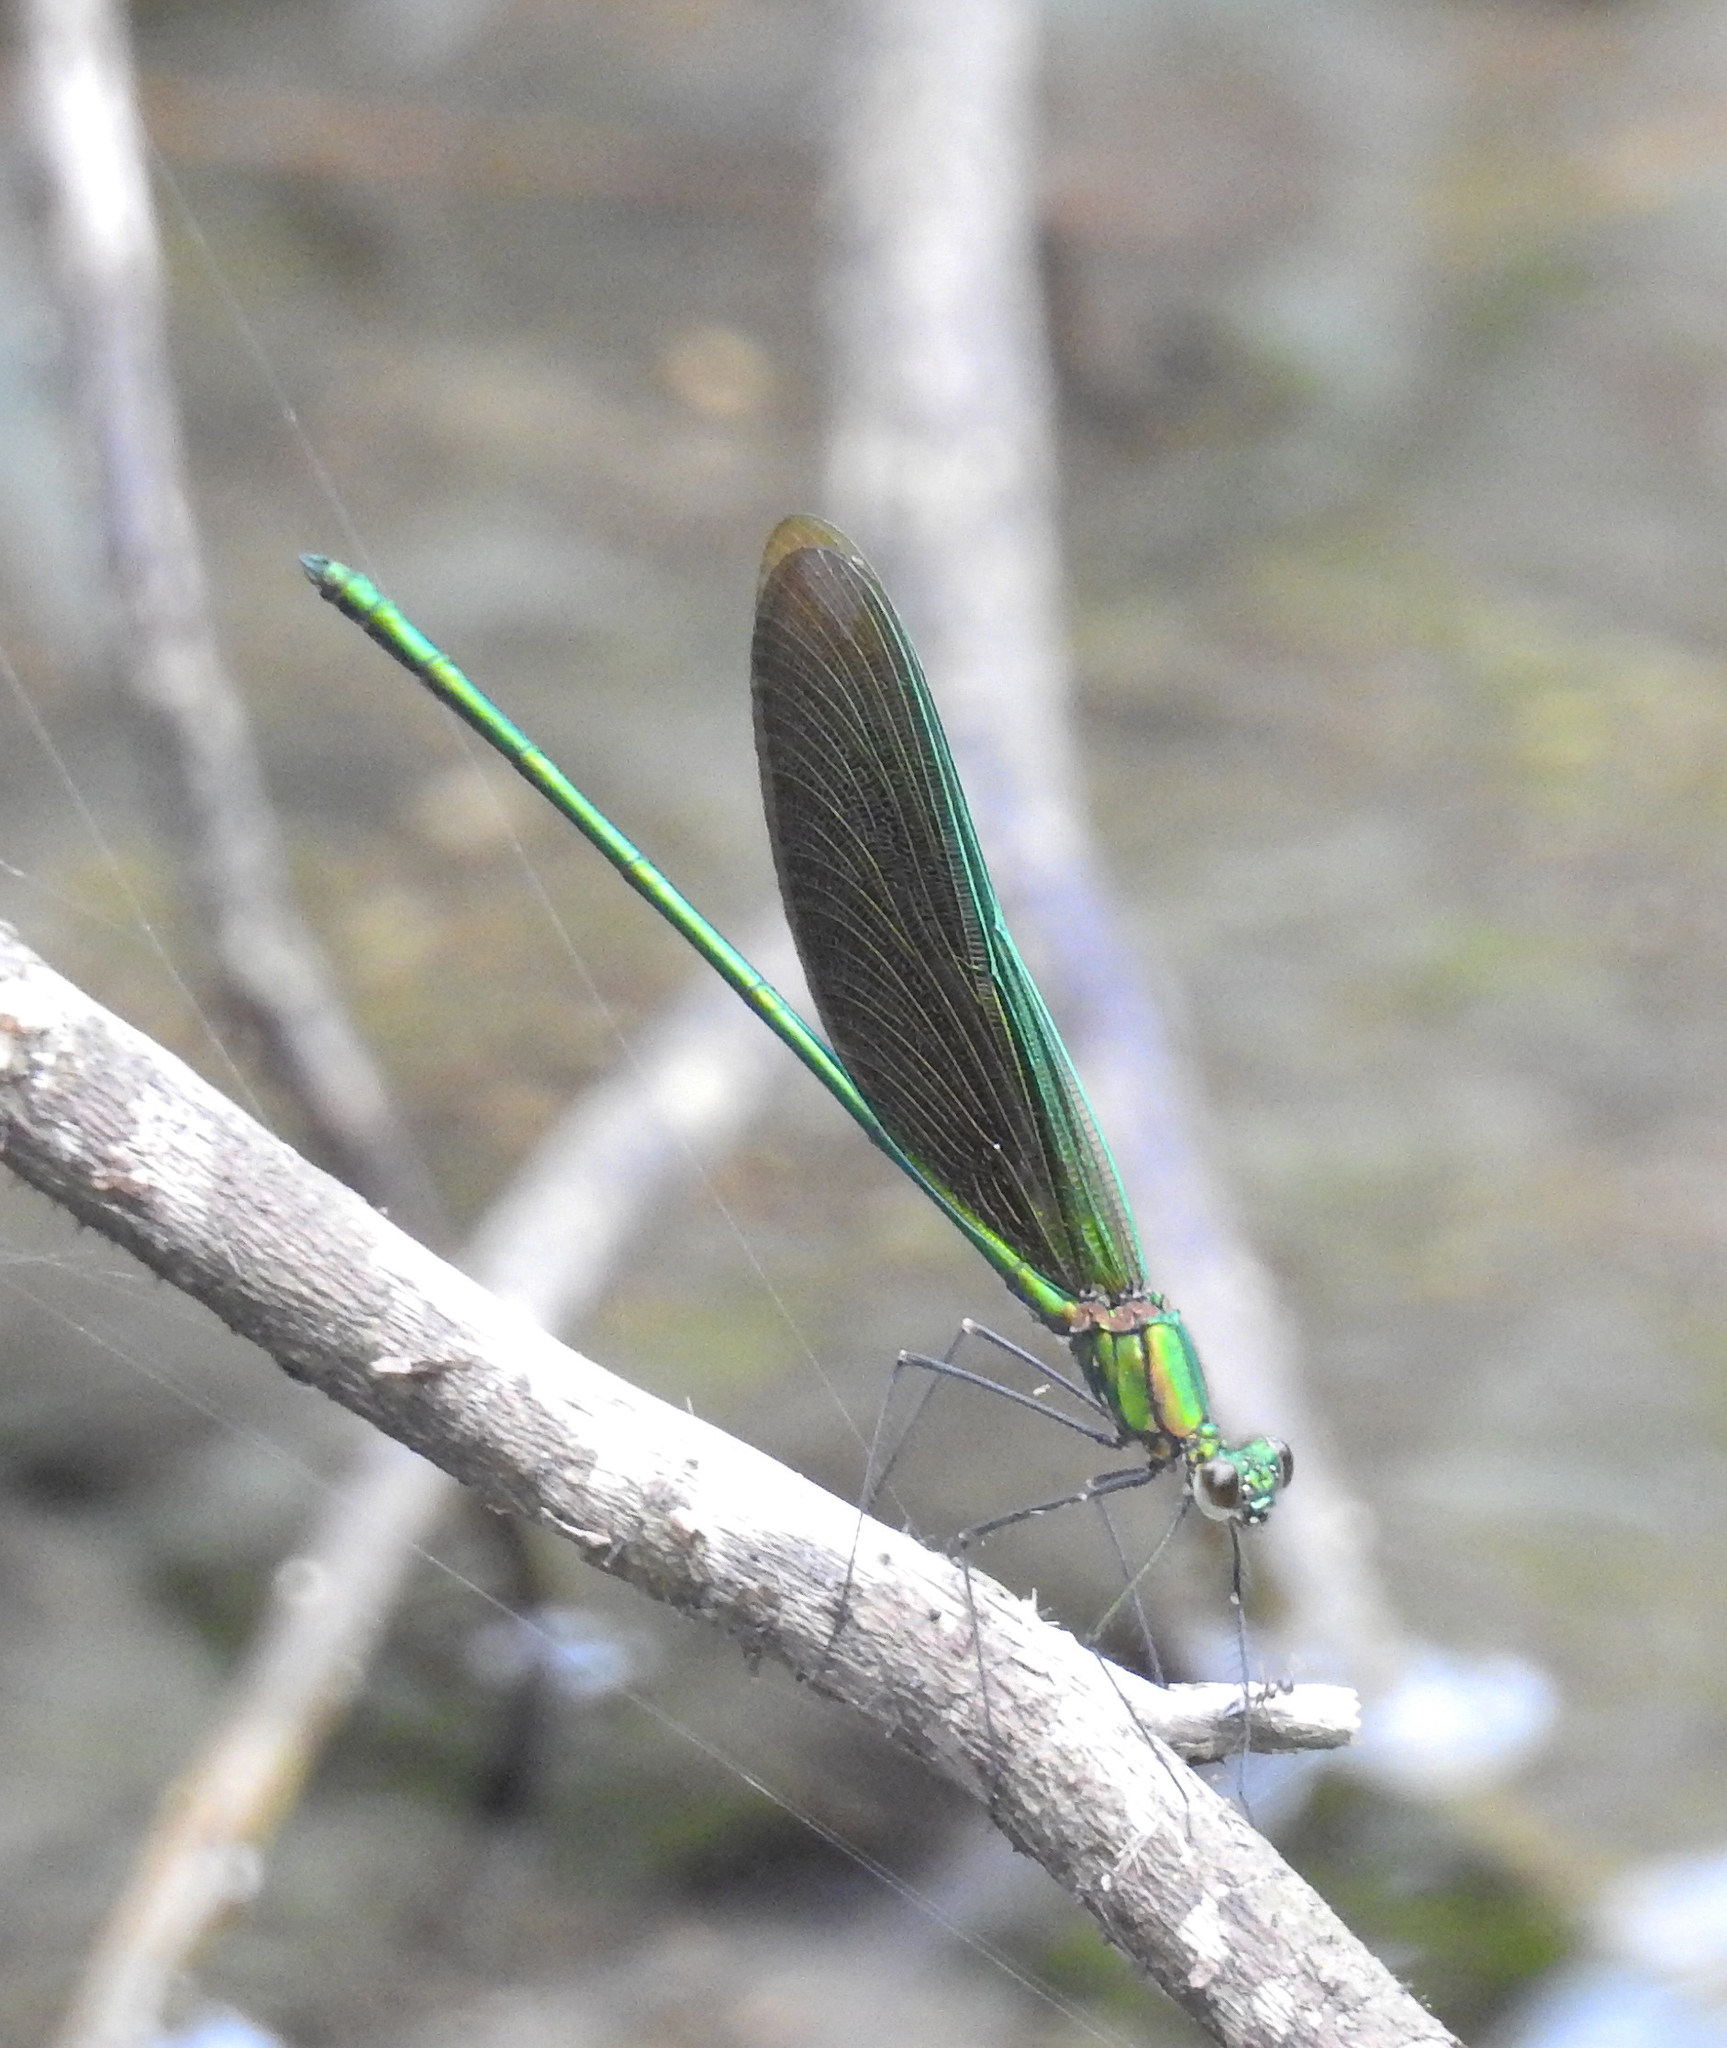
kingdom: Animalia
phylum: Arthropoda
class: Insecta
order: Odonata
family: Calopterygidae
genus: Neurobasis
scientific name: Neurobasis chinensis
